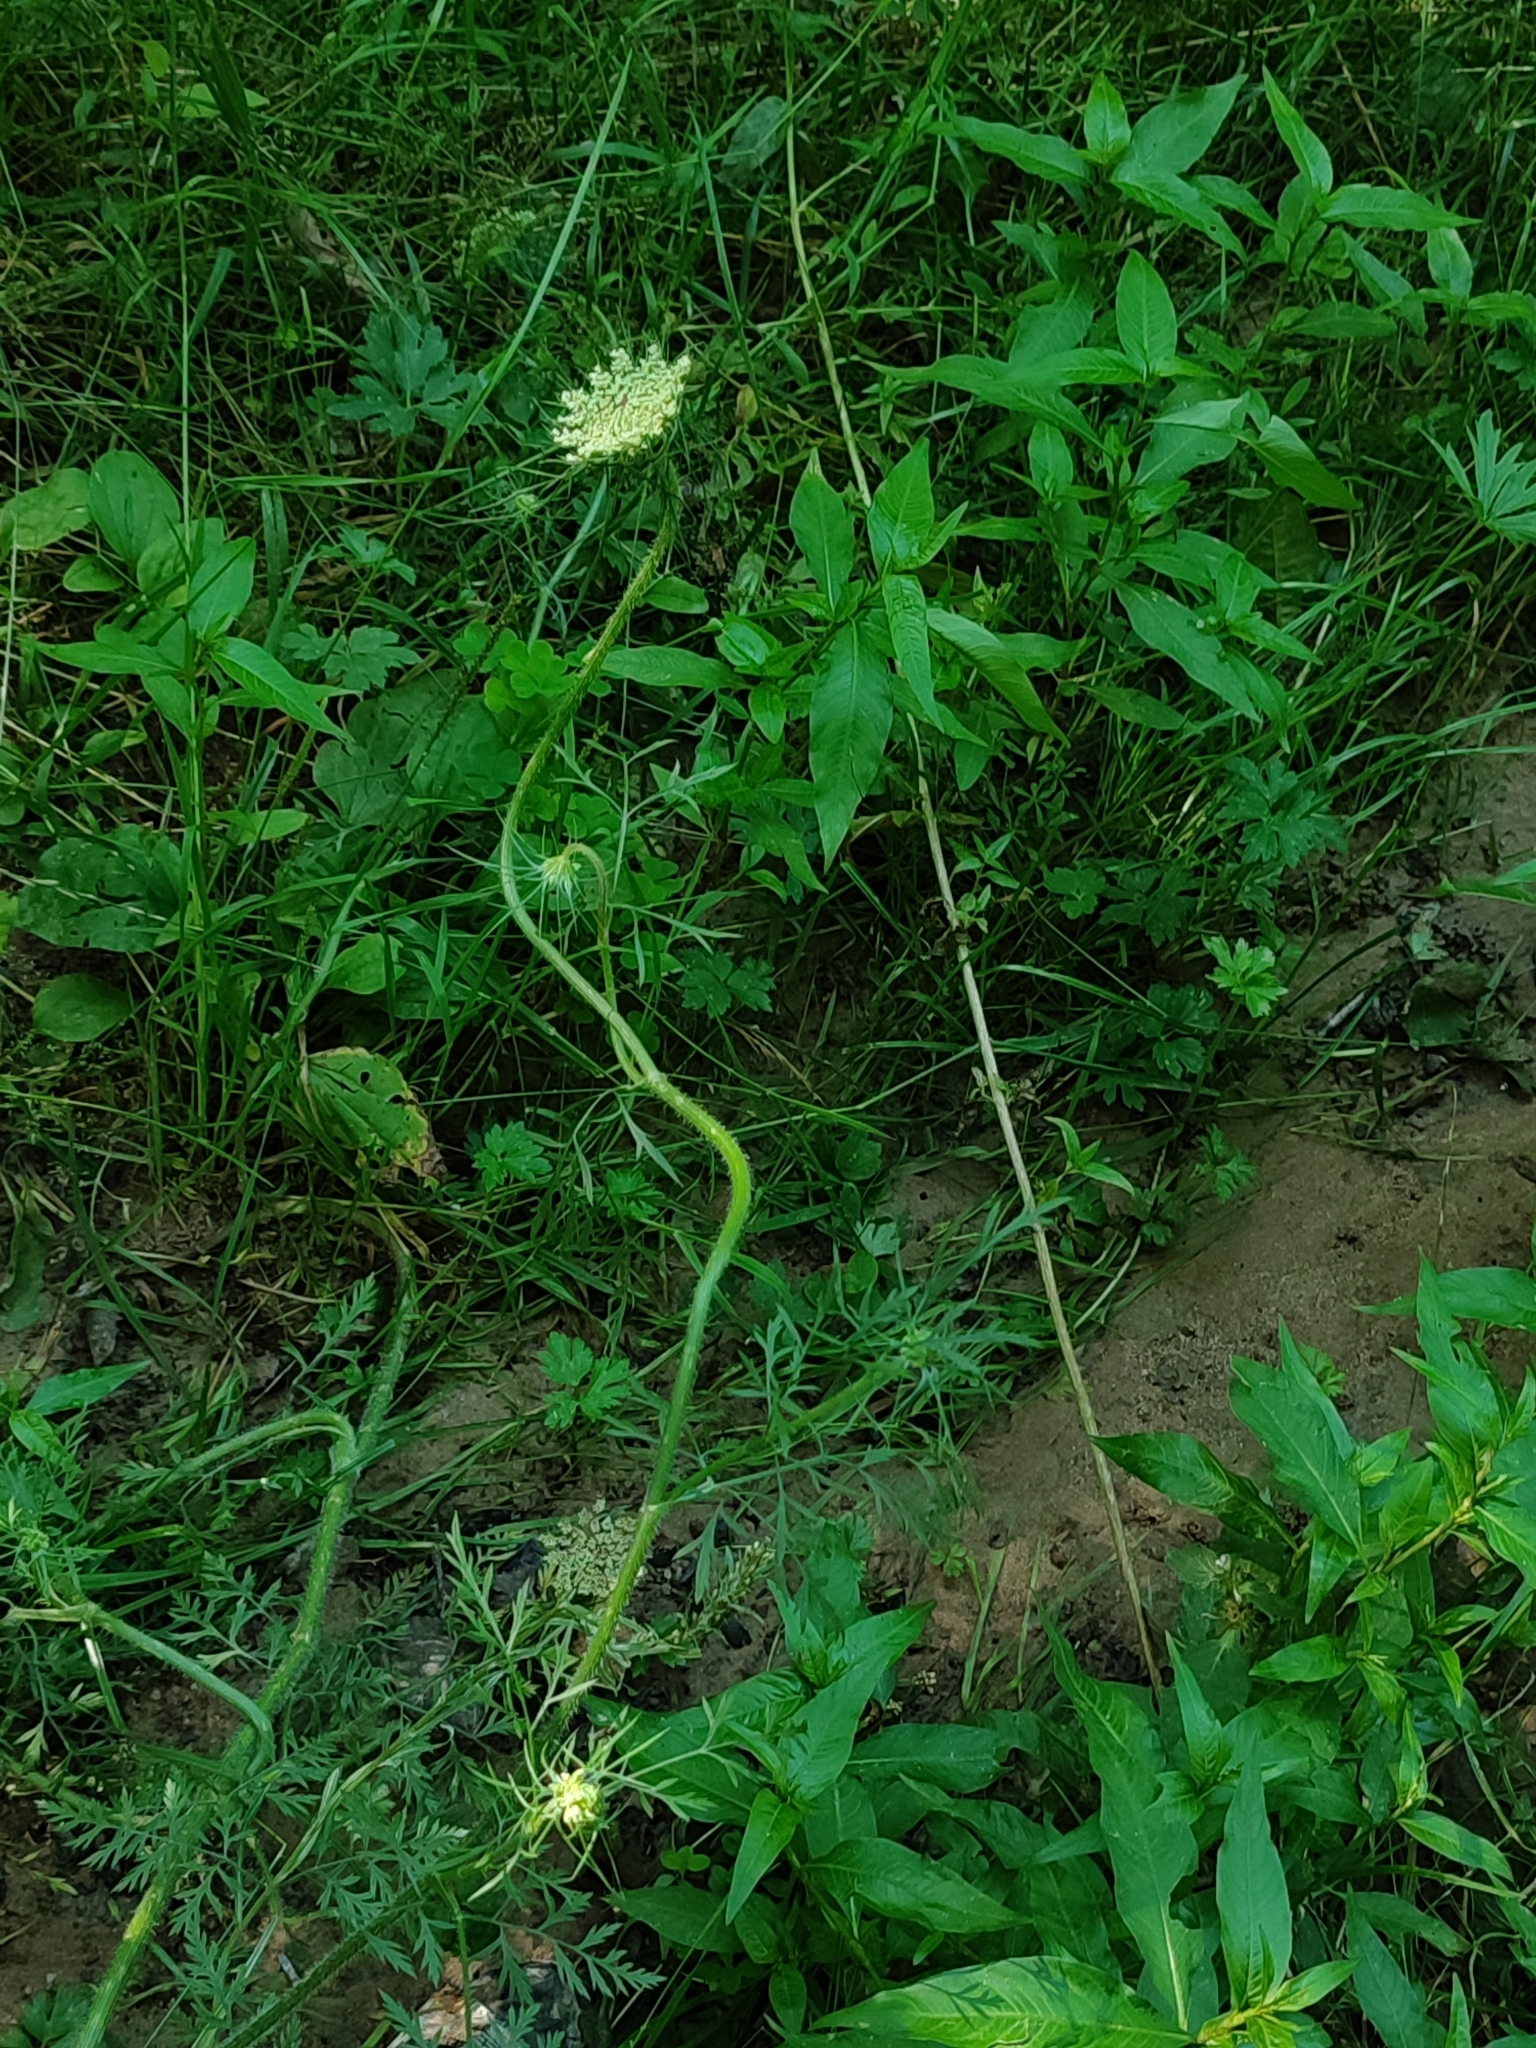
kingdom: Plantae
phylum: Tracheophyta
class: Magnoliopsida
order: Apiales
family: Apiaceae
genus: Daucus
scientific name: Daucus carota
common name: Wild carrot
